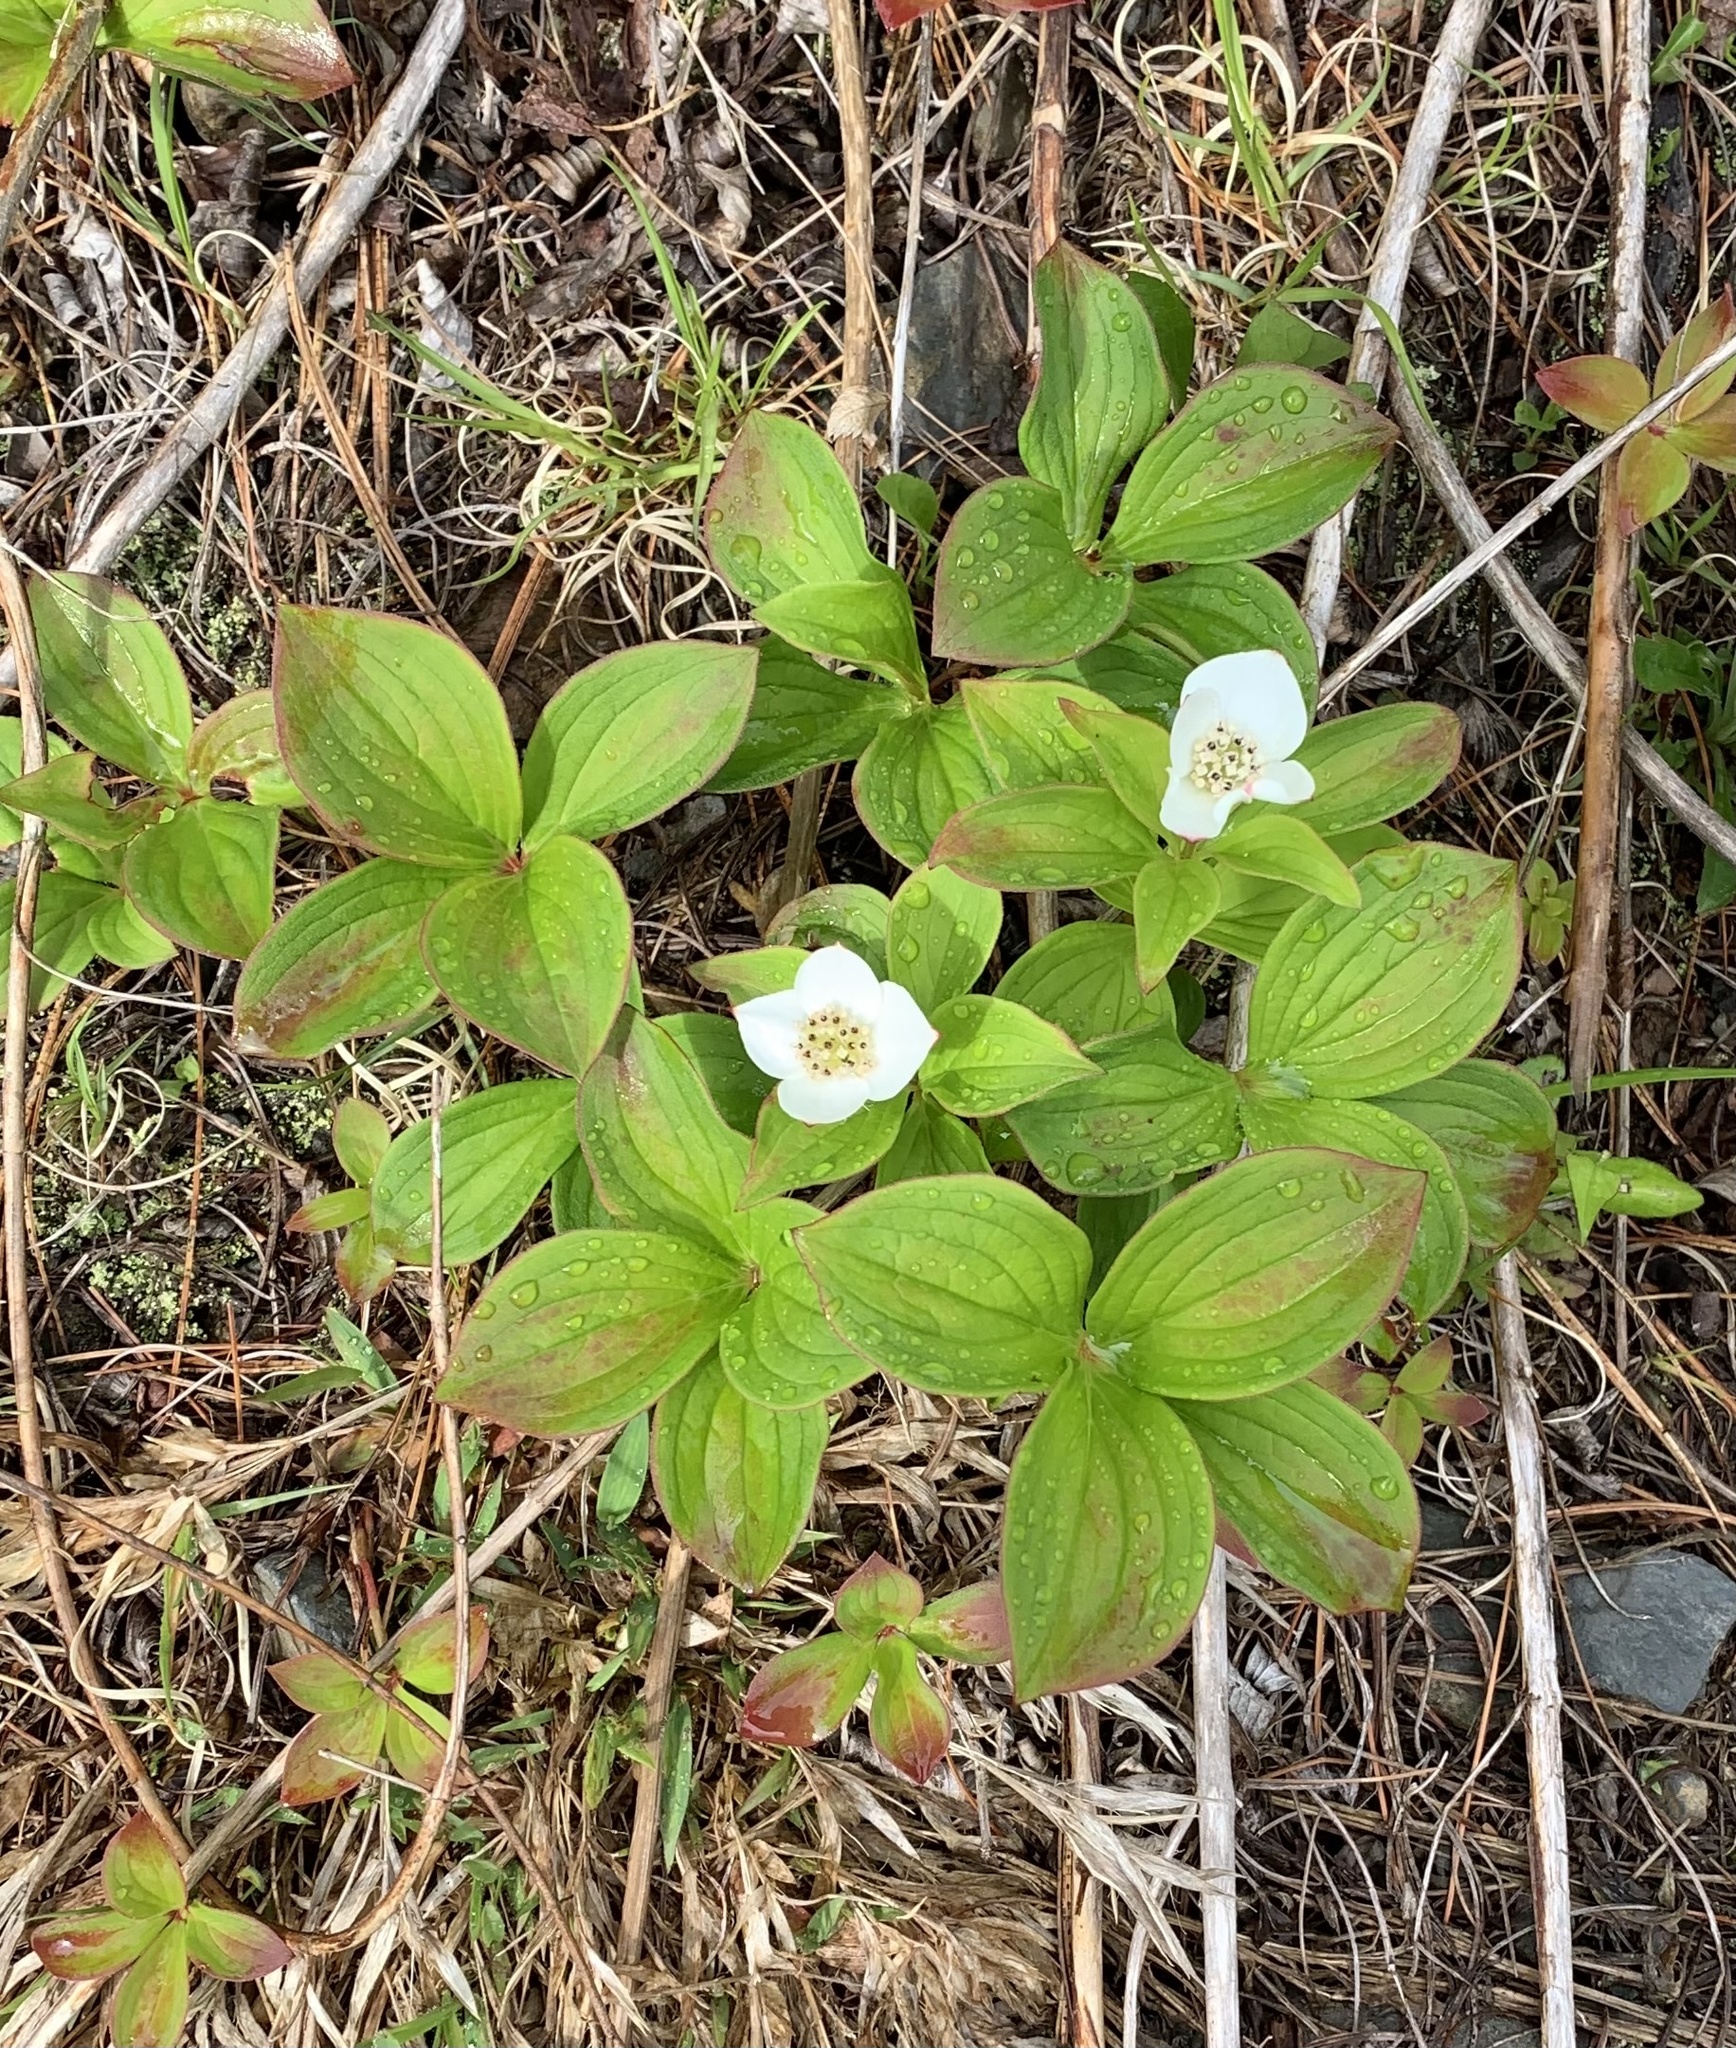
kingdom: Plantae
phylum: Tracheophyta
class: Magnoliopsida
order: Cornales
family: Cornaceae
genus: Cornus
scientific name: Cornus canadensis
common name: Creeping dogwood
